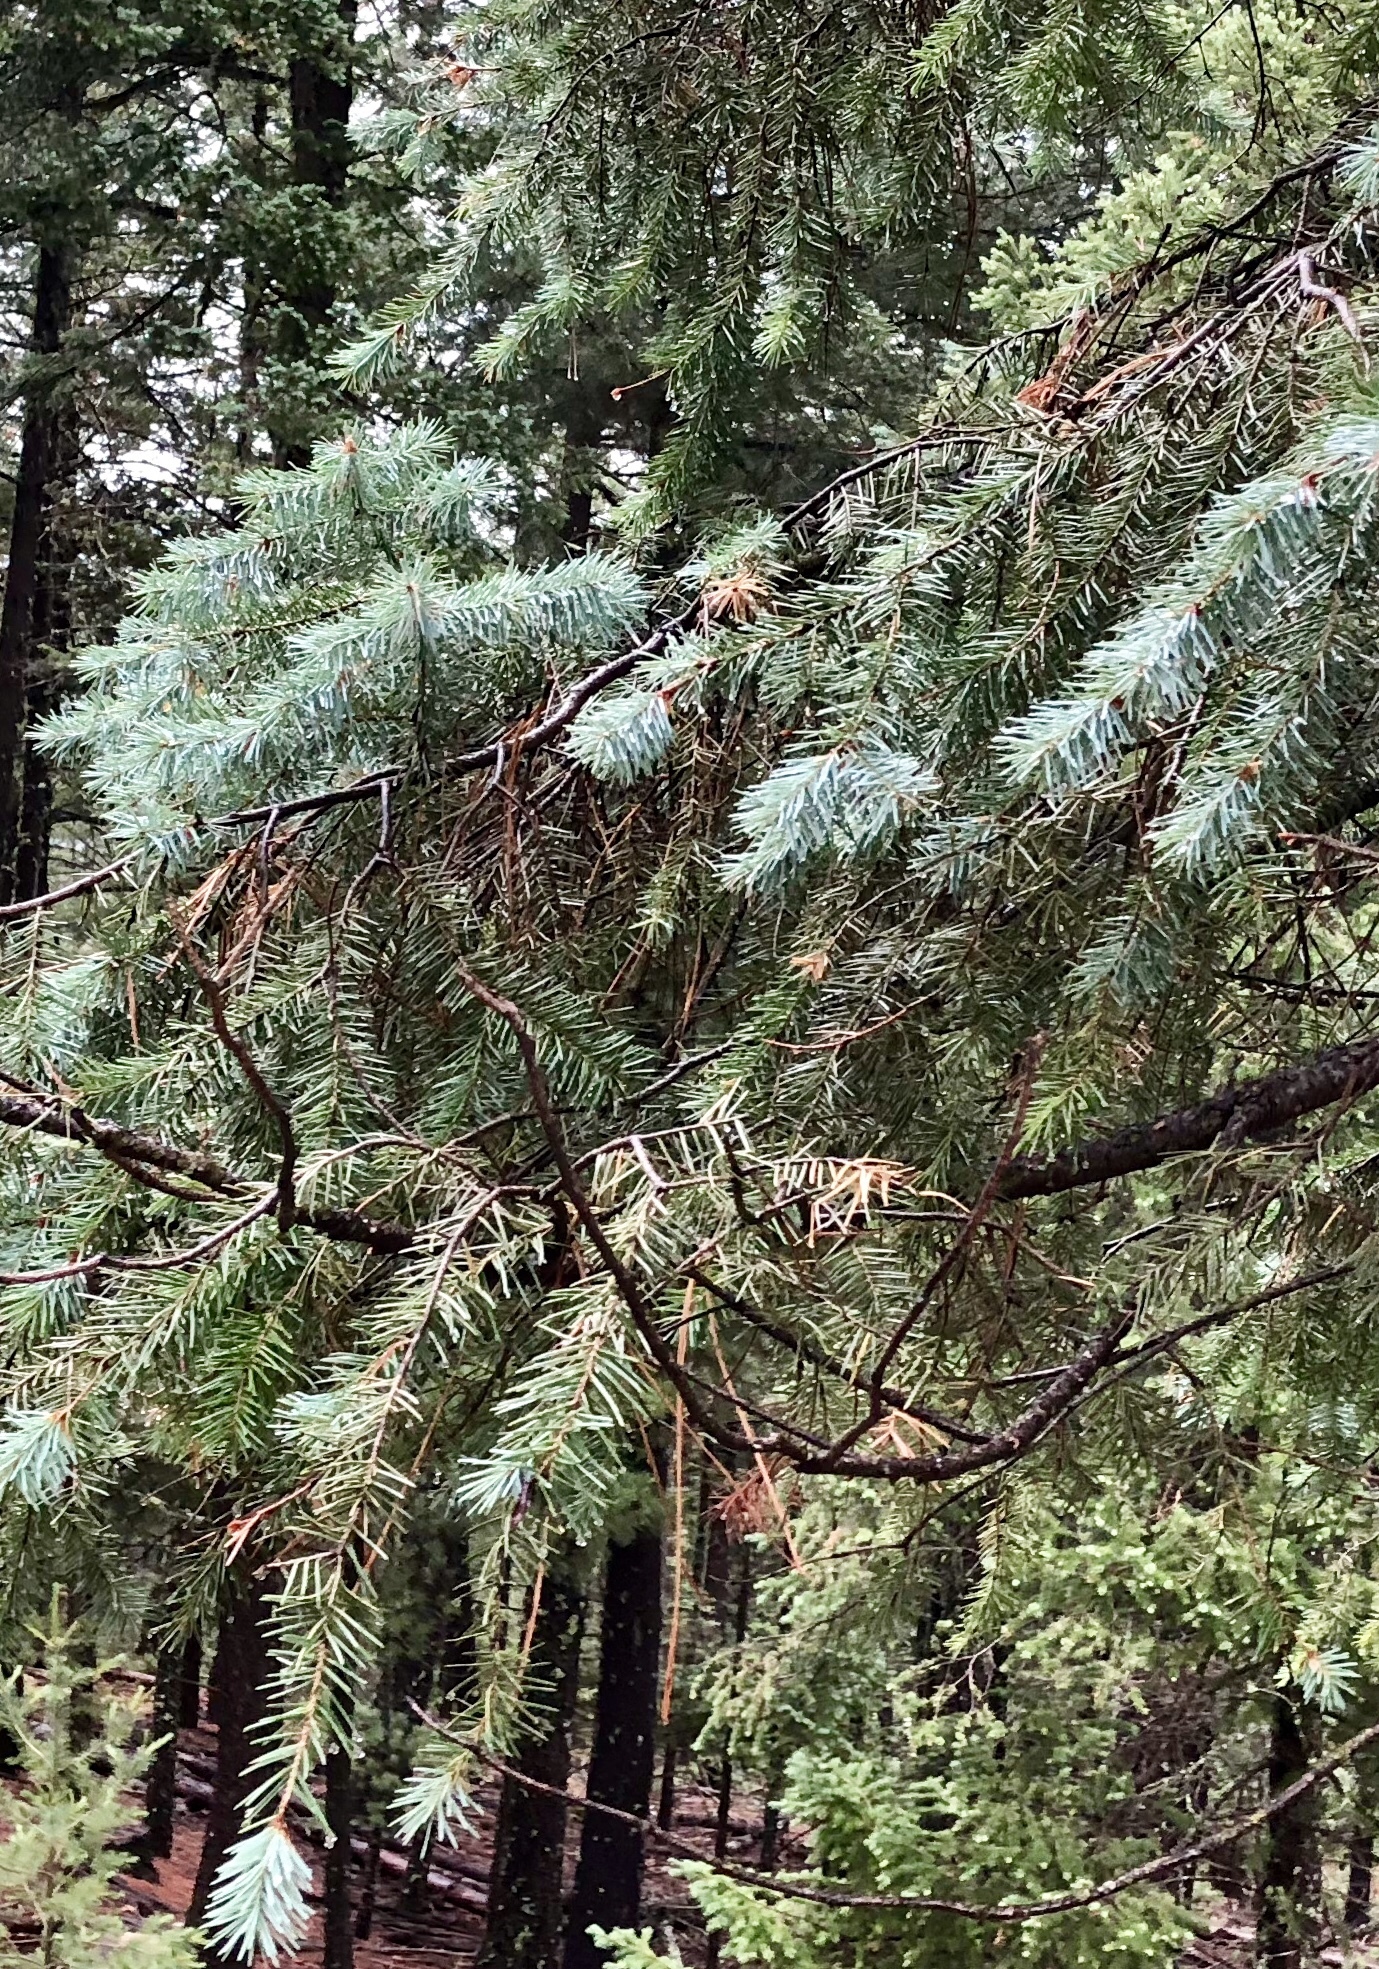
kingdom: Plantae
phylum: Tracheophyta
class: Pinopsida
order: Pinales
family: Pinaceae
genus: Pseudotsuga
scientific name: Pseudotsuga menziesii
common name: Douglas fir
